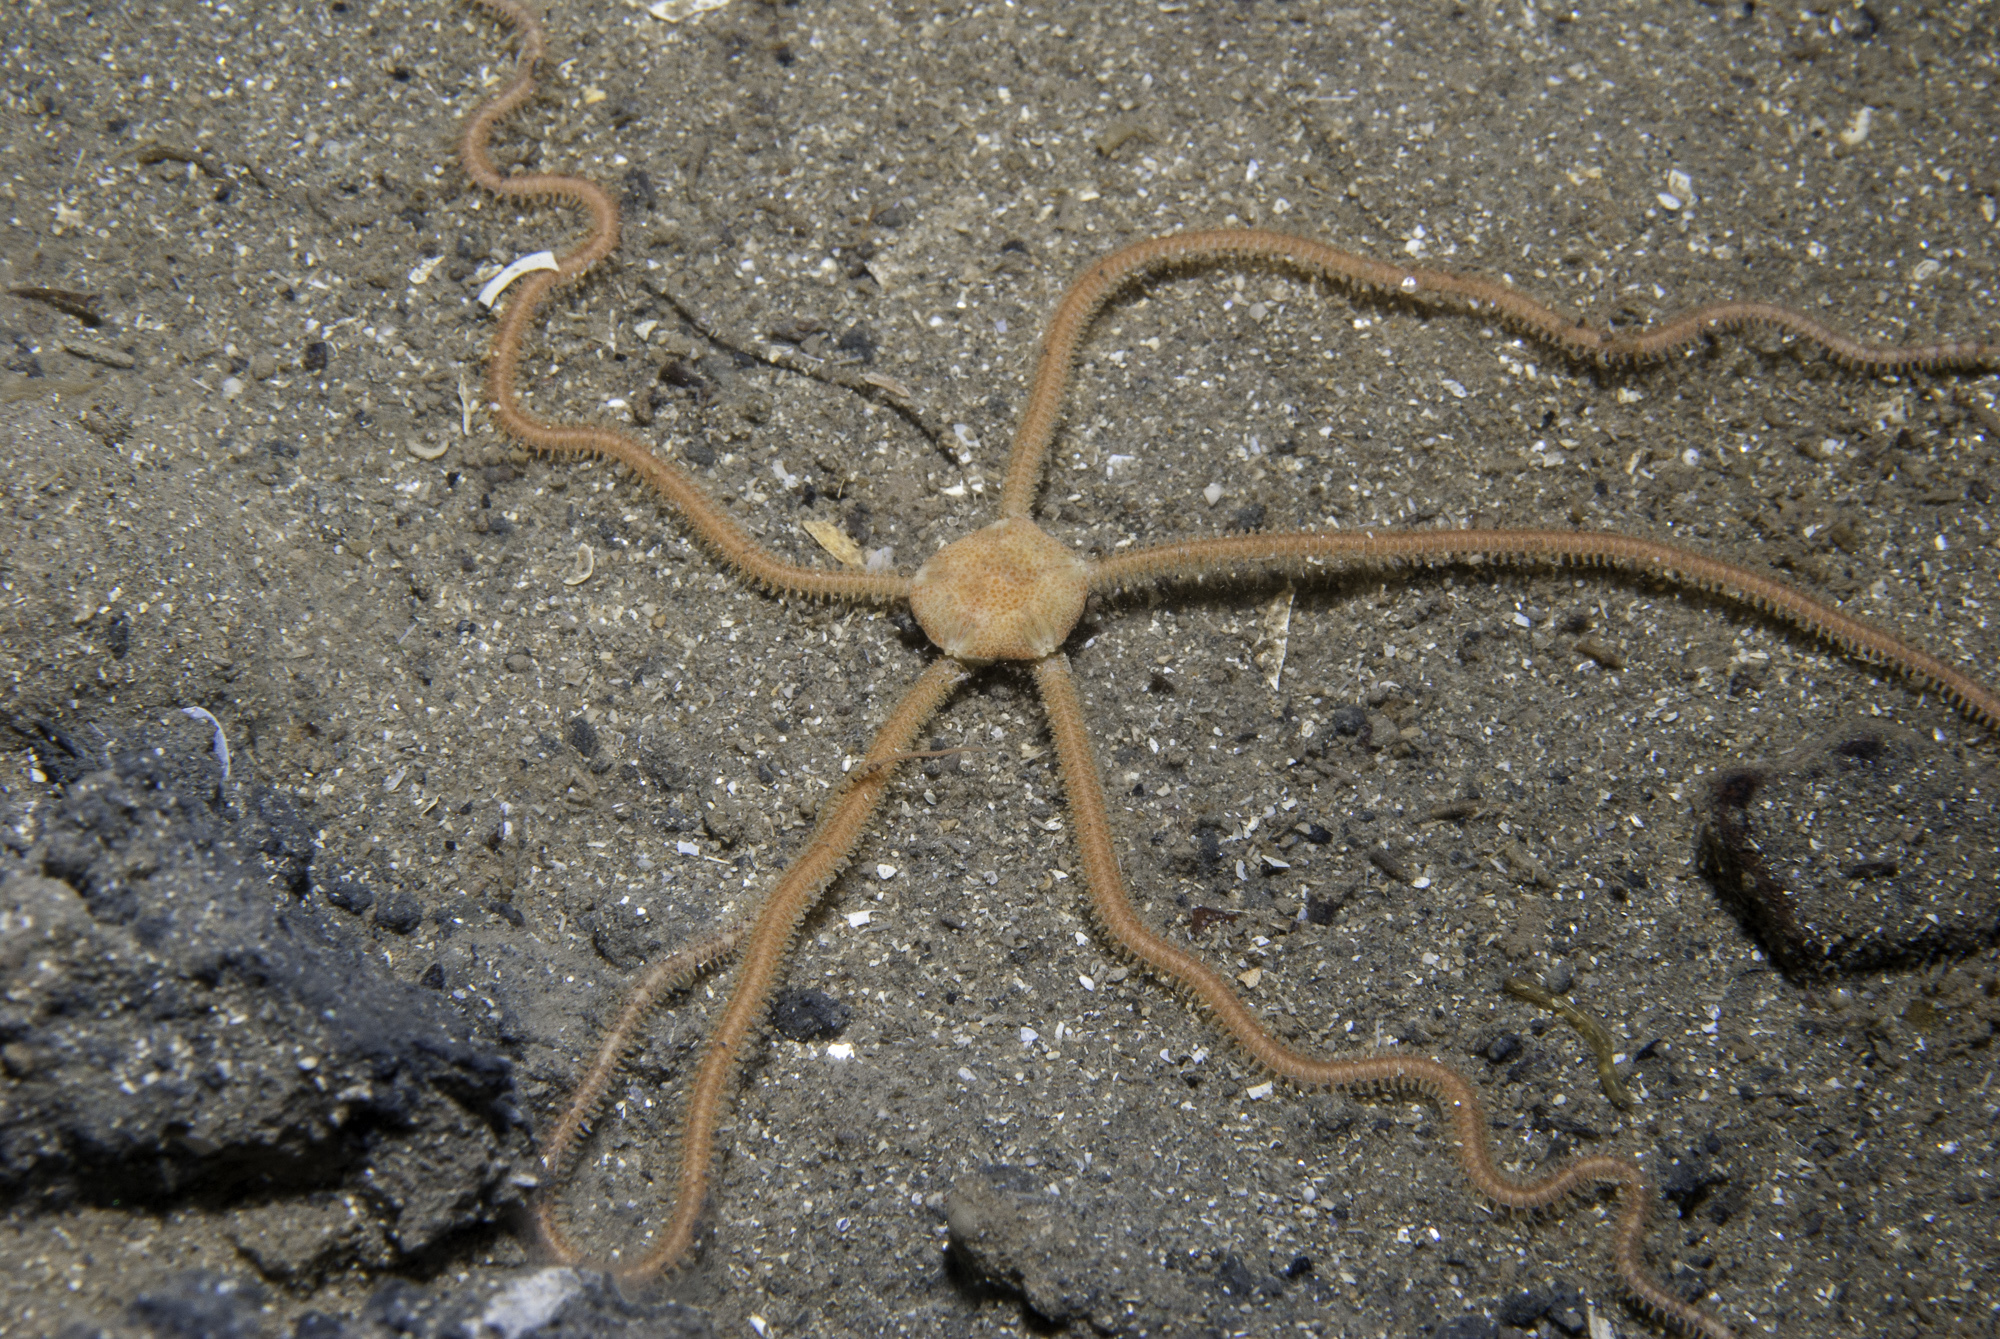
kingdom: Animalia
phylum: Echinodermata
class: Ophiuroidea
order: Amphilepidida
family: Amphiuridae
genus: Amphiura
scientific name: Amphiura filiformis
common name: Brittlestar
